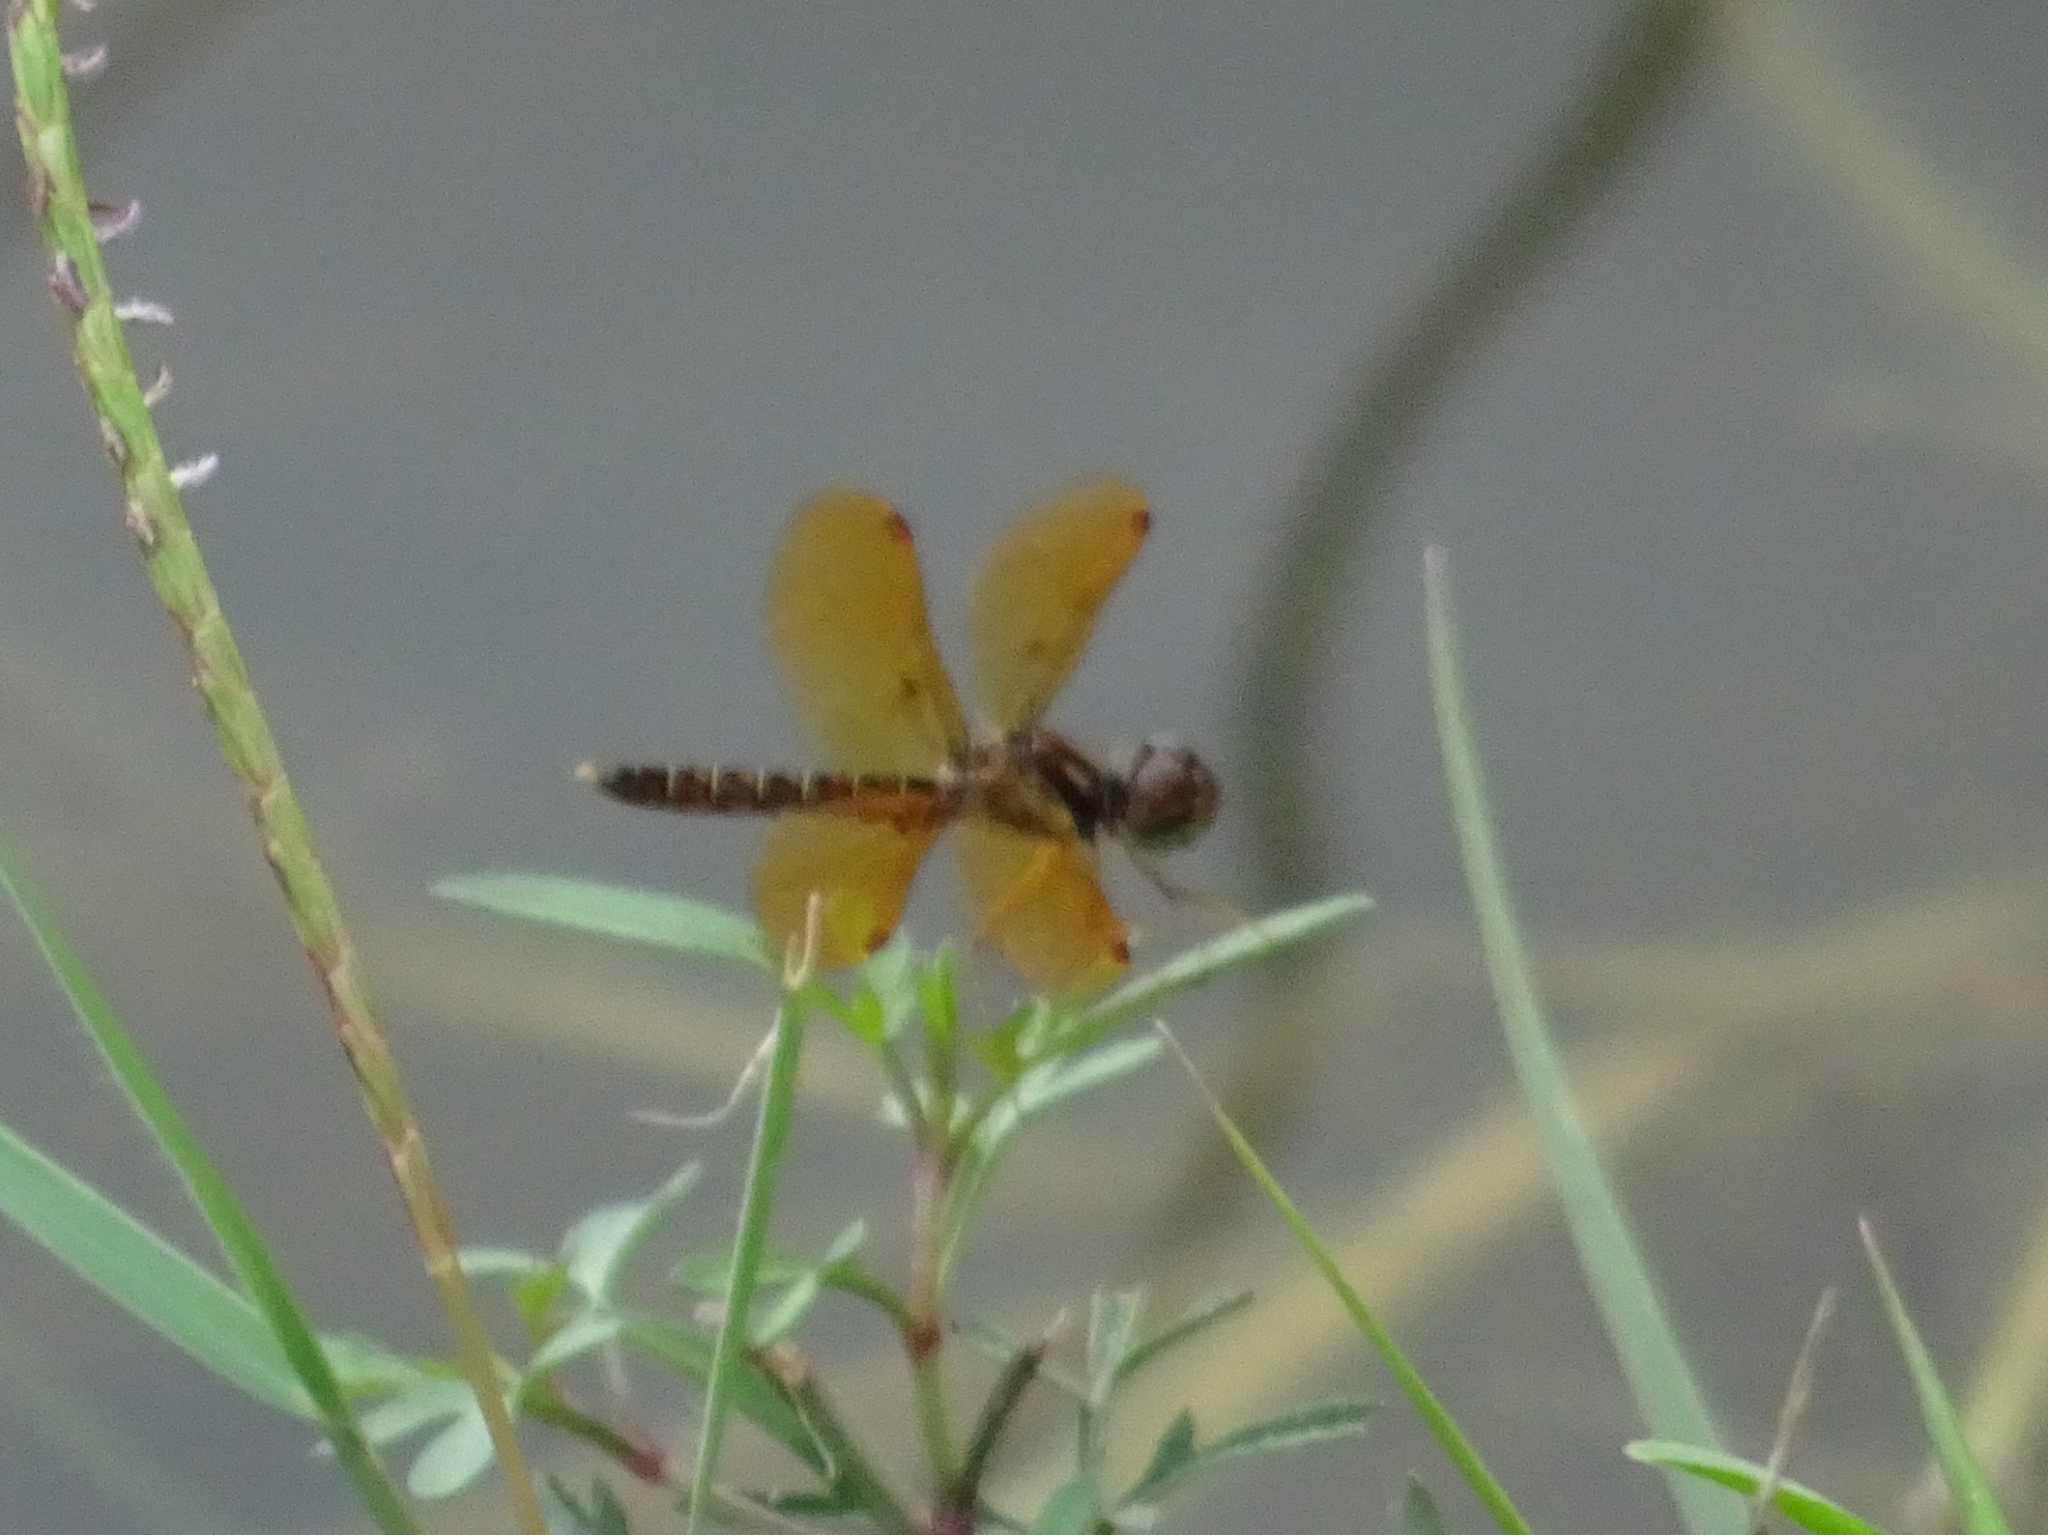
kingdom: Animalia
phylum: Arthropoda
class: Insecta
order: Odonata
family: Libellulidae
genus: Perithemis
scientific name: Perithemis tenera
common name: Eastern amberwing
